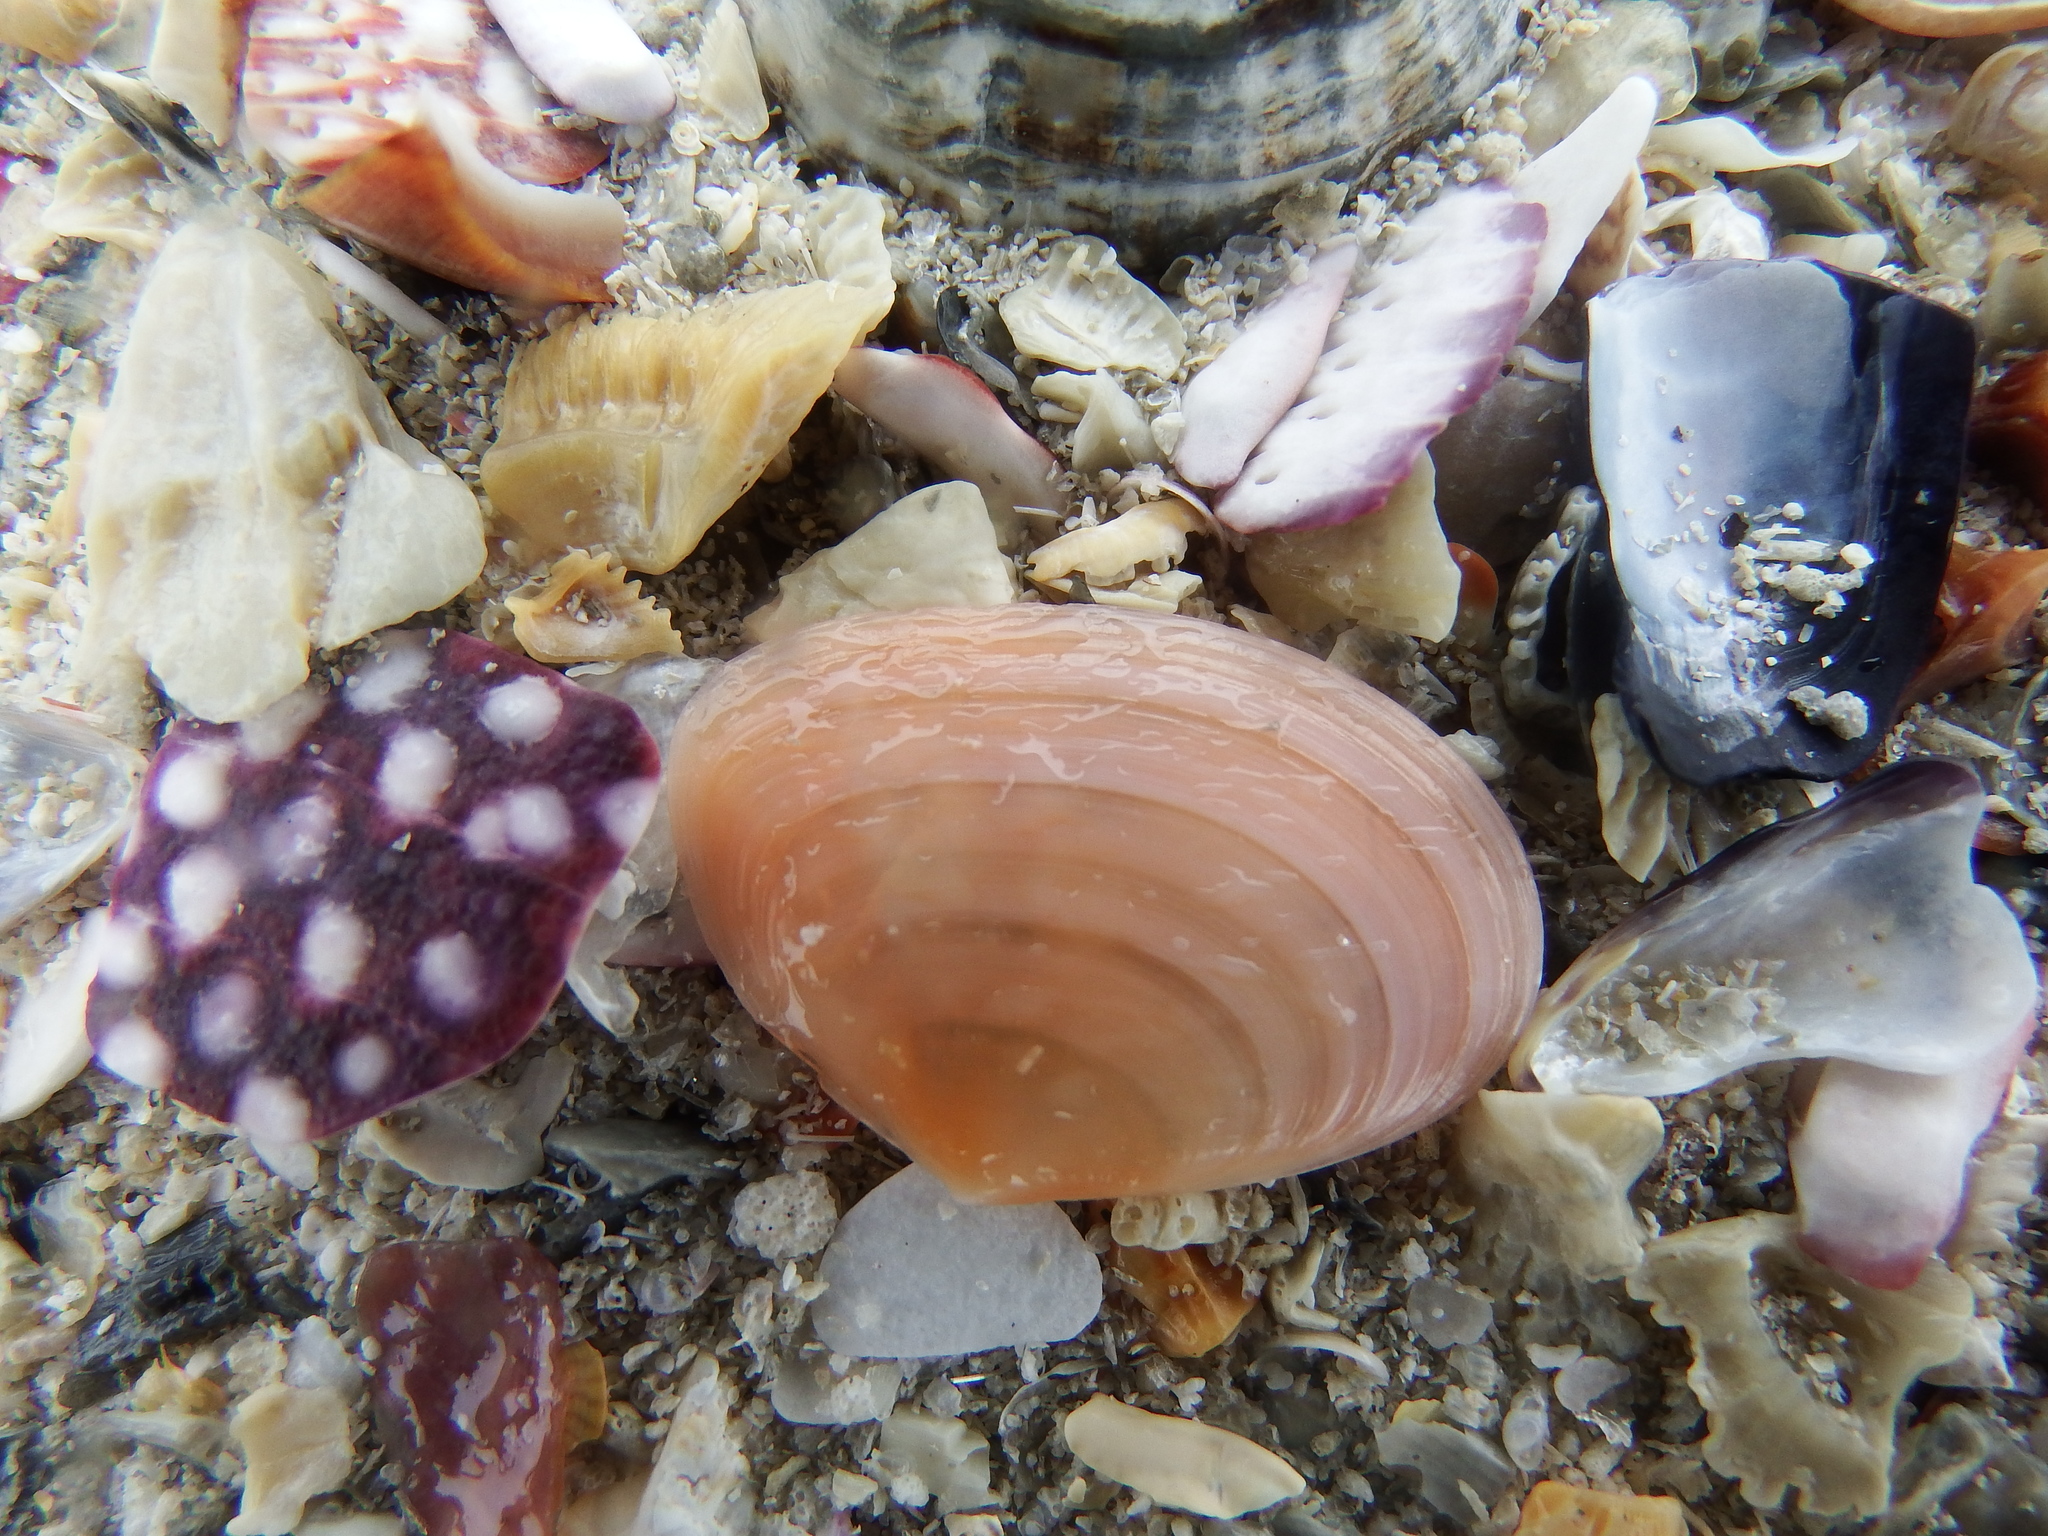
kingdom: Animalia
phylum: Mollusca
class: Bivalvia
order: Cardiida
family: Tellinidae
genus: Macomangulus
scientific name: Macomangulus tenuis
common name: Thin tellin
